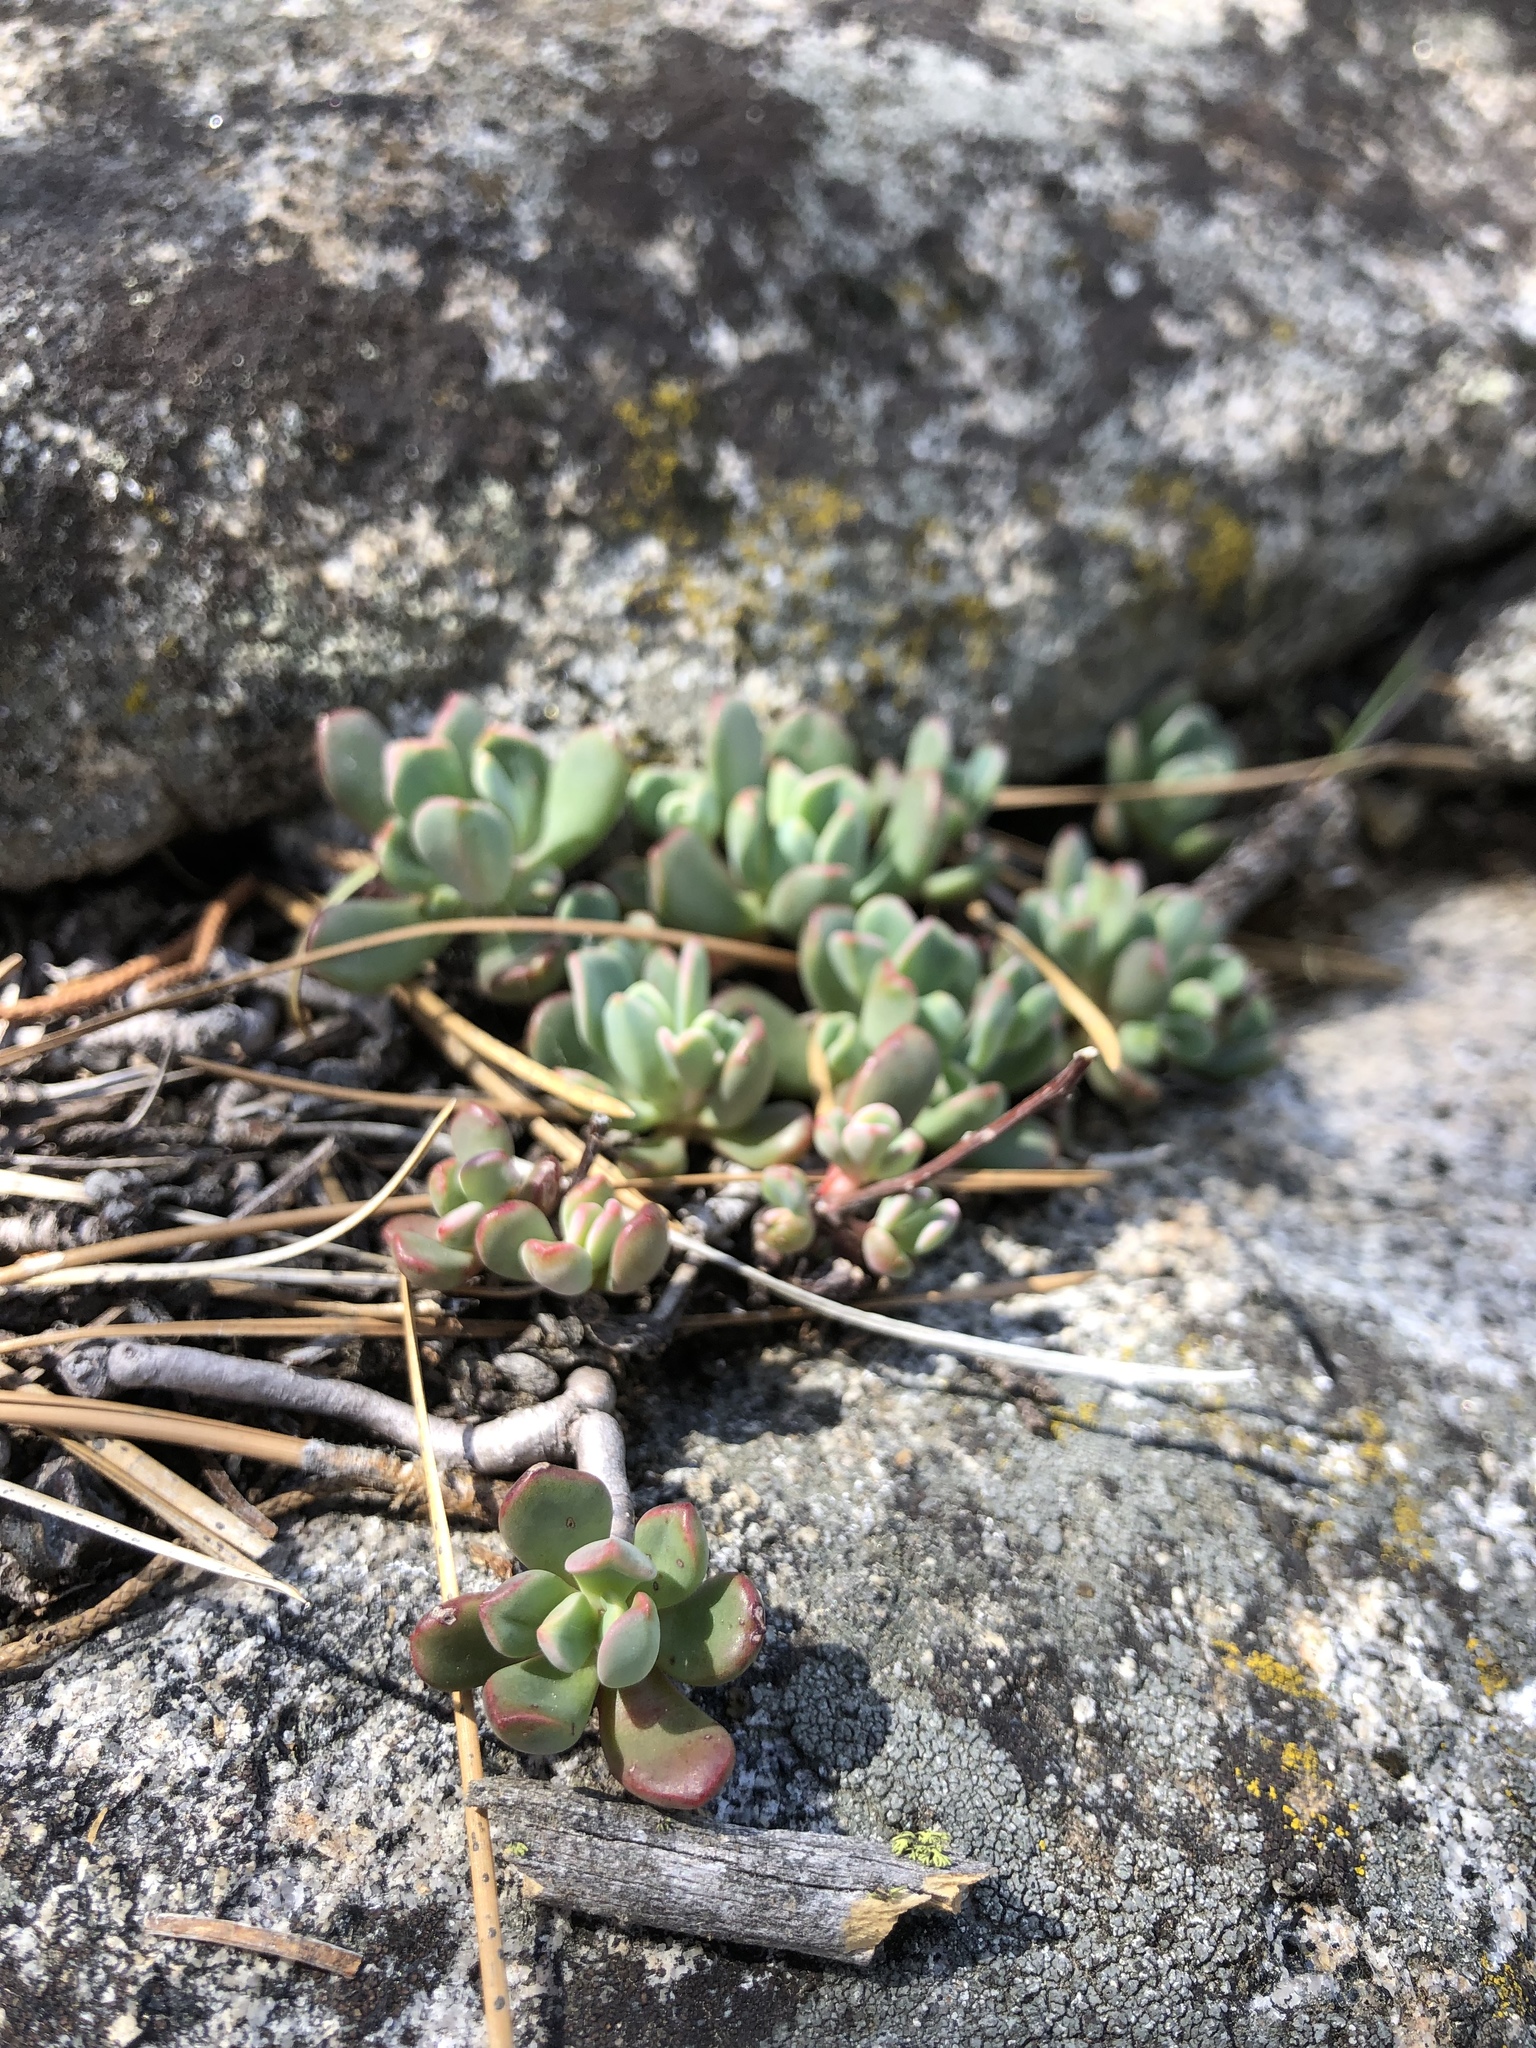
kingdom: Plantae
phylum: Tracheophyta
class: Magnoliopsida
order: Saxifragales
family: Crassulaceae
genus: Sedum
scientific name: Sedum obtusatum
